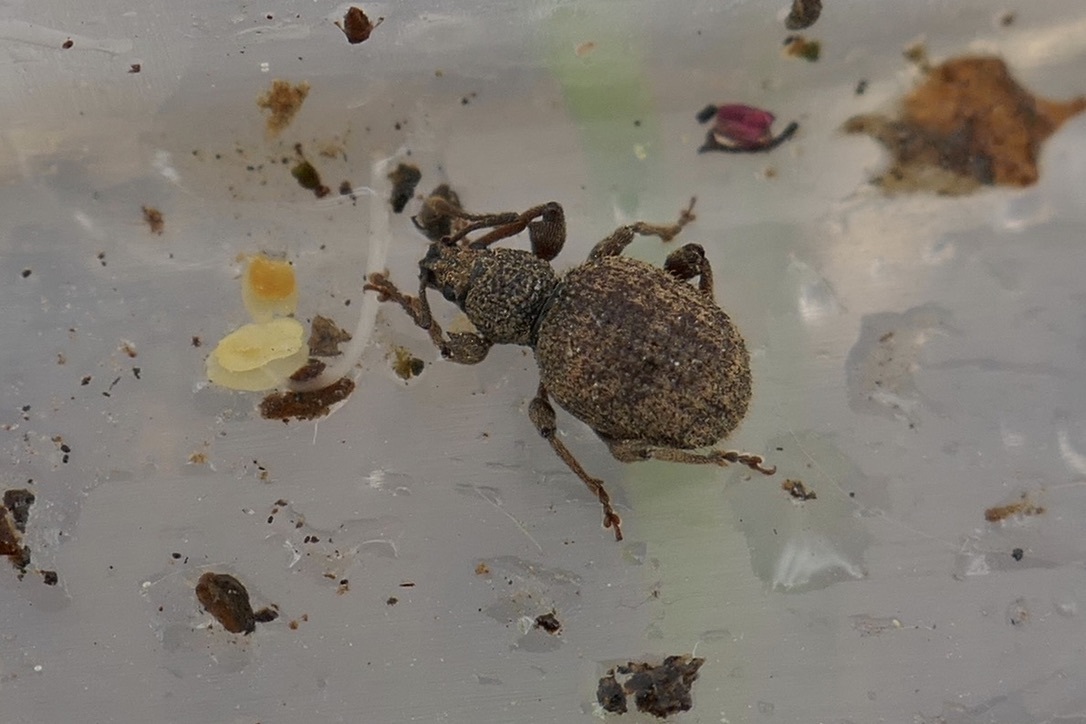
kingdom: Animalia
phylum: Arthropoda
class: Insecta
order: Coleoptera
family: Curculionidae
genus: Otiorhynchus
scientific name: Otiorhynchus crataegi
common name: Privet weevil
